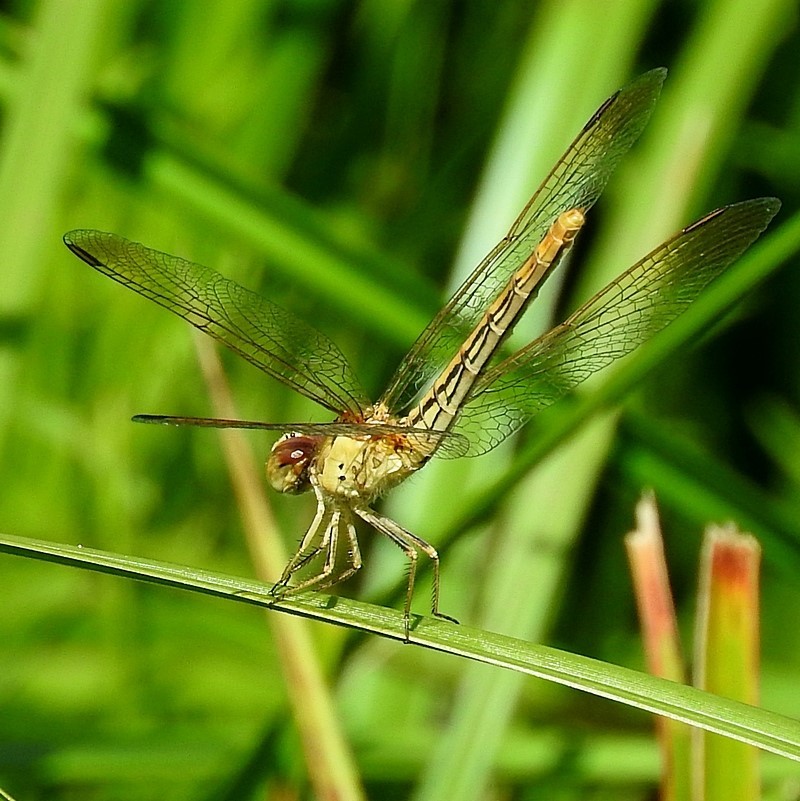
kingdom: Animalia
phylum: Arthropoda
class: Insecta
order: Odonata
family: Libellulidae
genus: Diplacodes
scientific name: Diplacodes haematodes
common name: Scarlet percher
